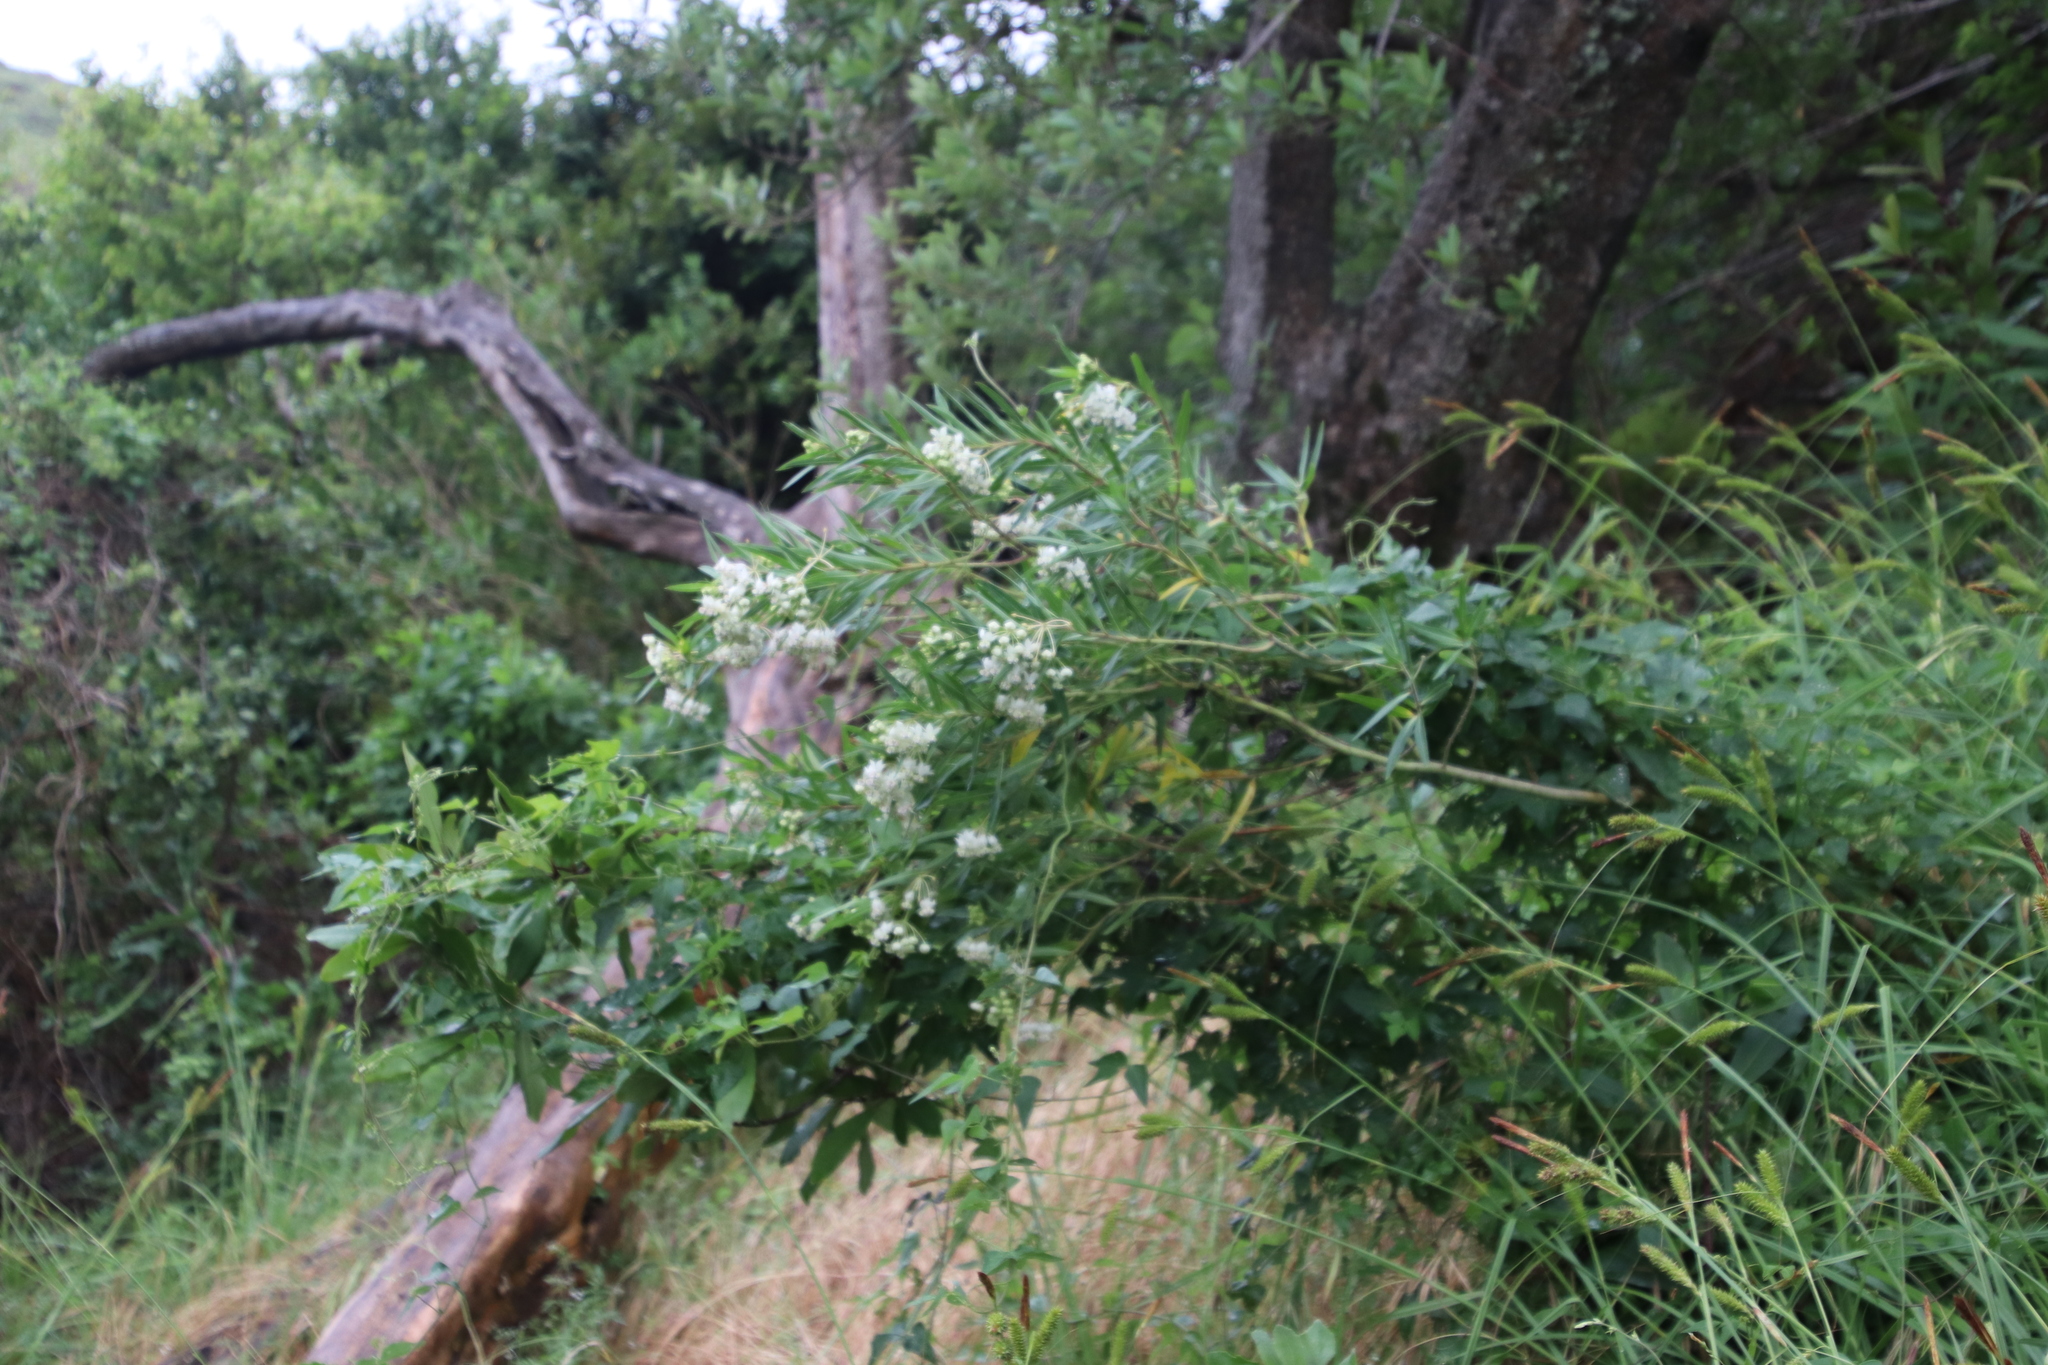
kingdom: Plantae
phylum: Tracheophyta
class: Magnoliopsida
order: Gentianales
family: Apocynaceae
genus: Gomphocarpus
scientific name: Gomphocarpus fruticosus
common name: Milkweed
